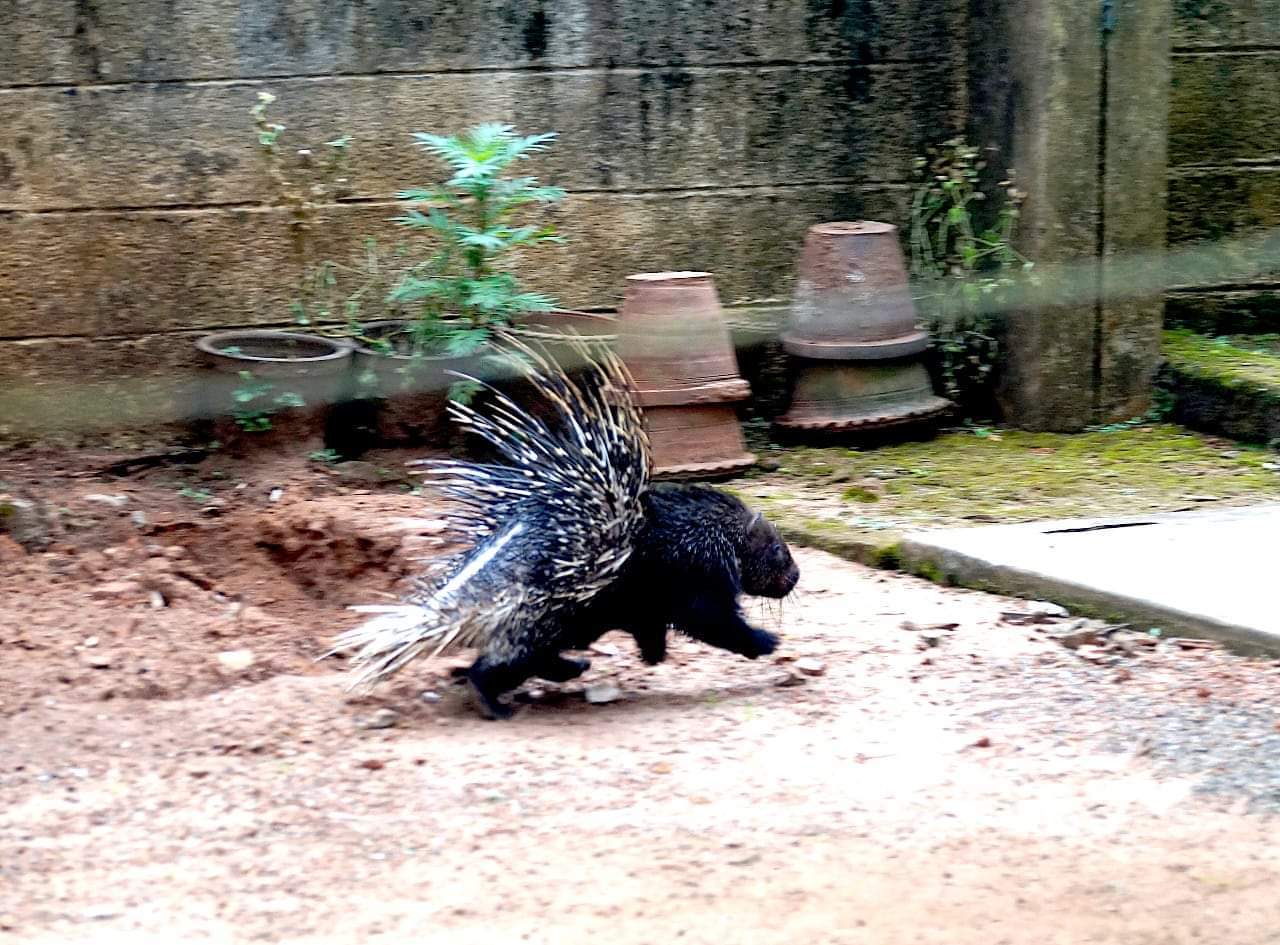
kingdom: Animalia
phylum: Chordata
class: Mammalia
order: Rodentia
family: Hystricidae
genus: Hystrix
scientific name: Hystrix indica
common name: Indian crested porcupine
